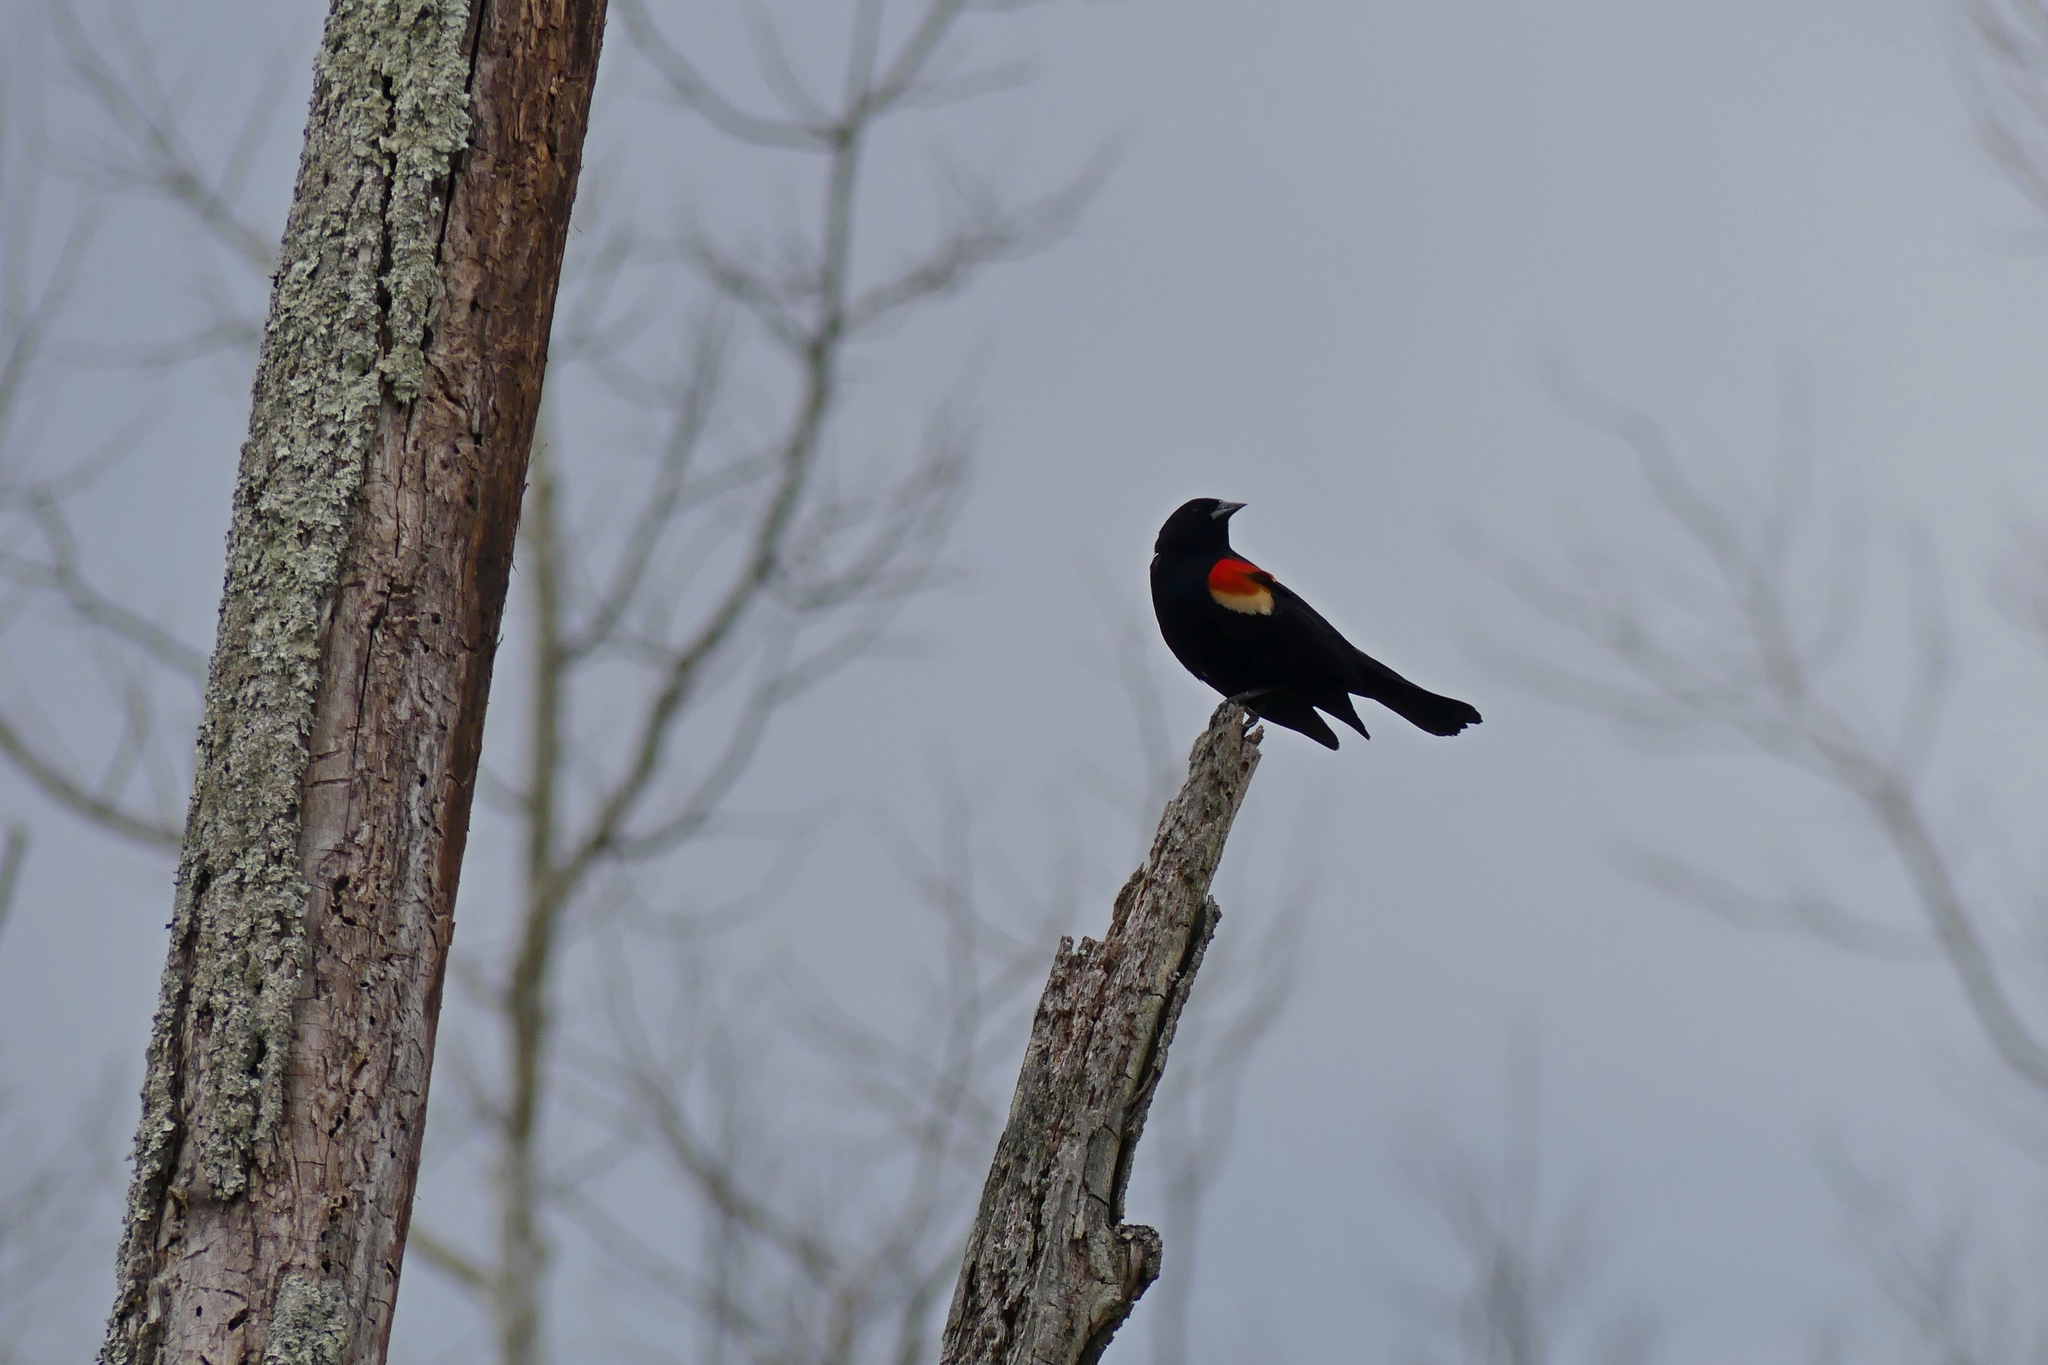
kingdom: Animalia
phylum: Chordata
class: Aves
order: Passeriformes
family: Icteridae
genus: Agelaius
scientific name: Agelaius phoeniceus
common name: Red-winged blackbird
